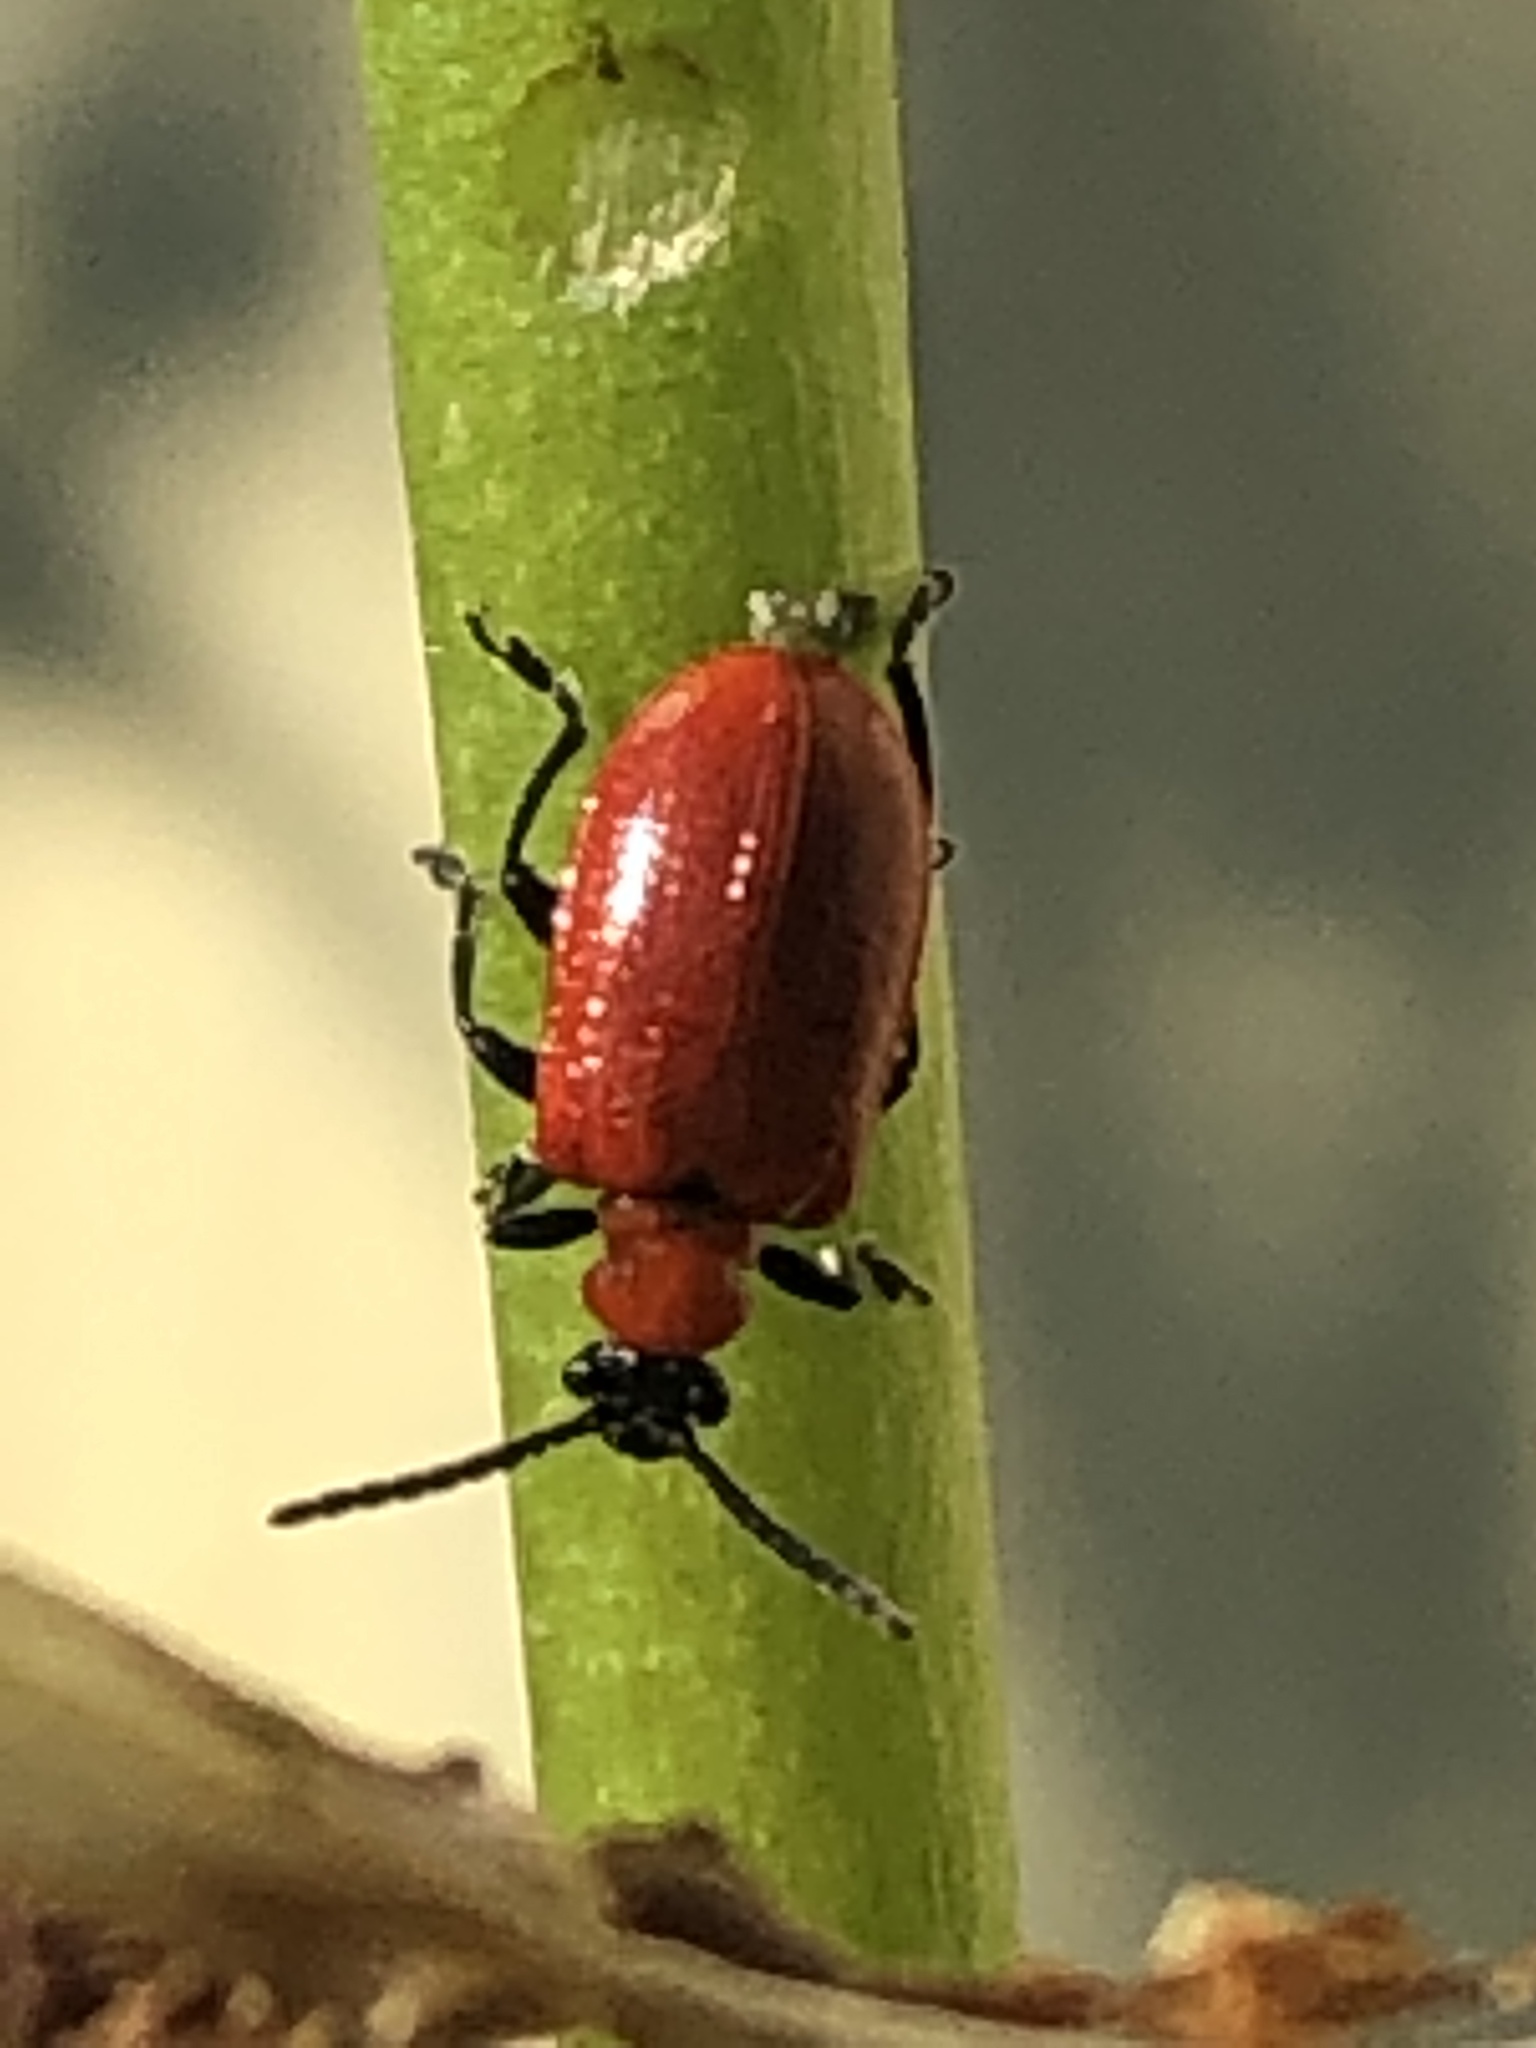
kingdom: Animalia
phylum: Arthropoda
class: Insecta
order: Coleoptera
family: Chrysomelidae
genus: Lilioceris
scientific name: Lilioceris lilii
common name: Lily beetle
